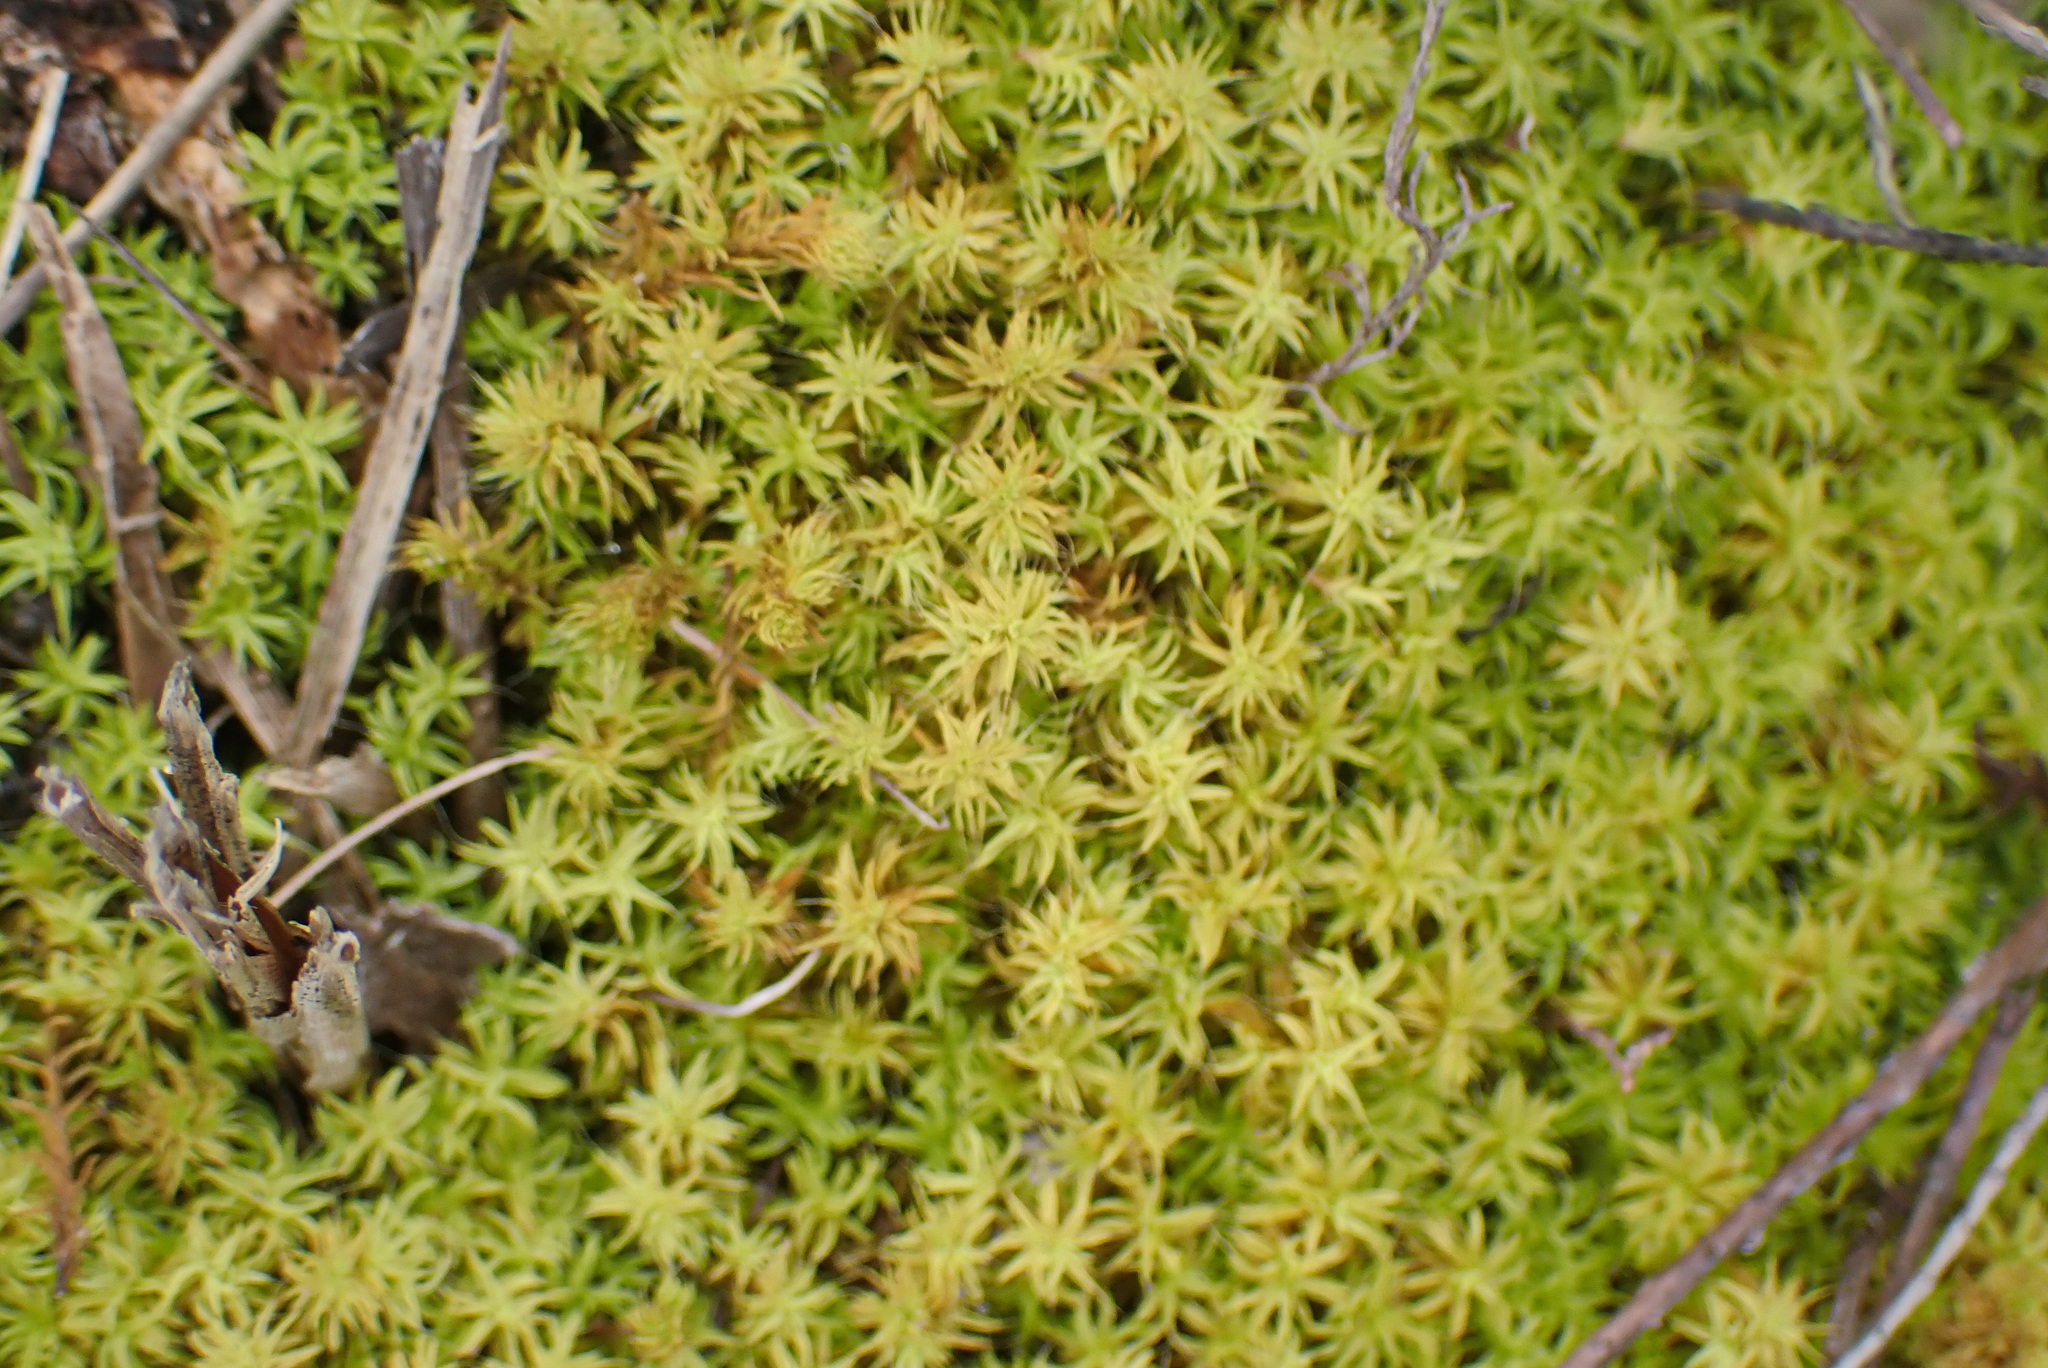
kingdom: Plantae
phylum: Bryophyta
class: Bryopsida
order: Pottiales
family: Pottiaceae
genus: Pseudocrossidium
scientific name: Pseudocrossidium crinitum
